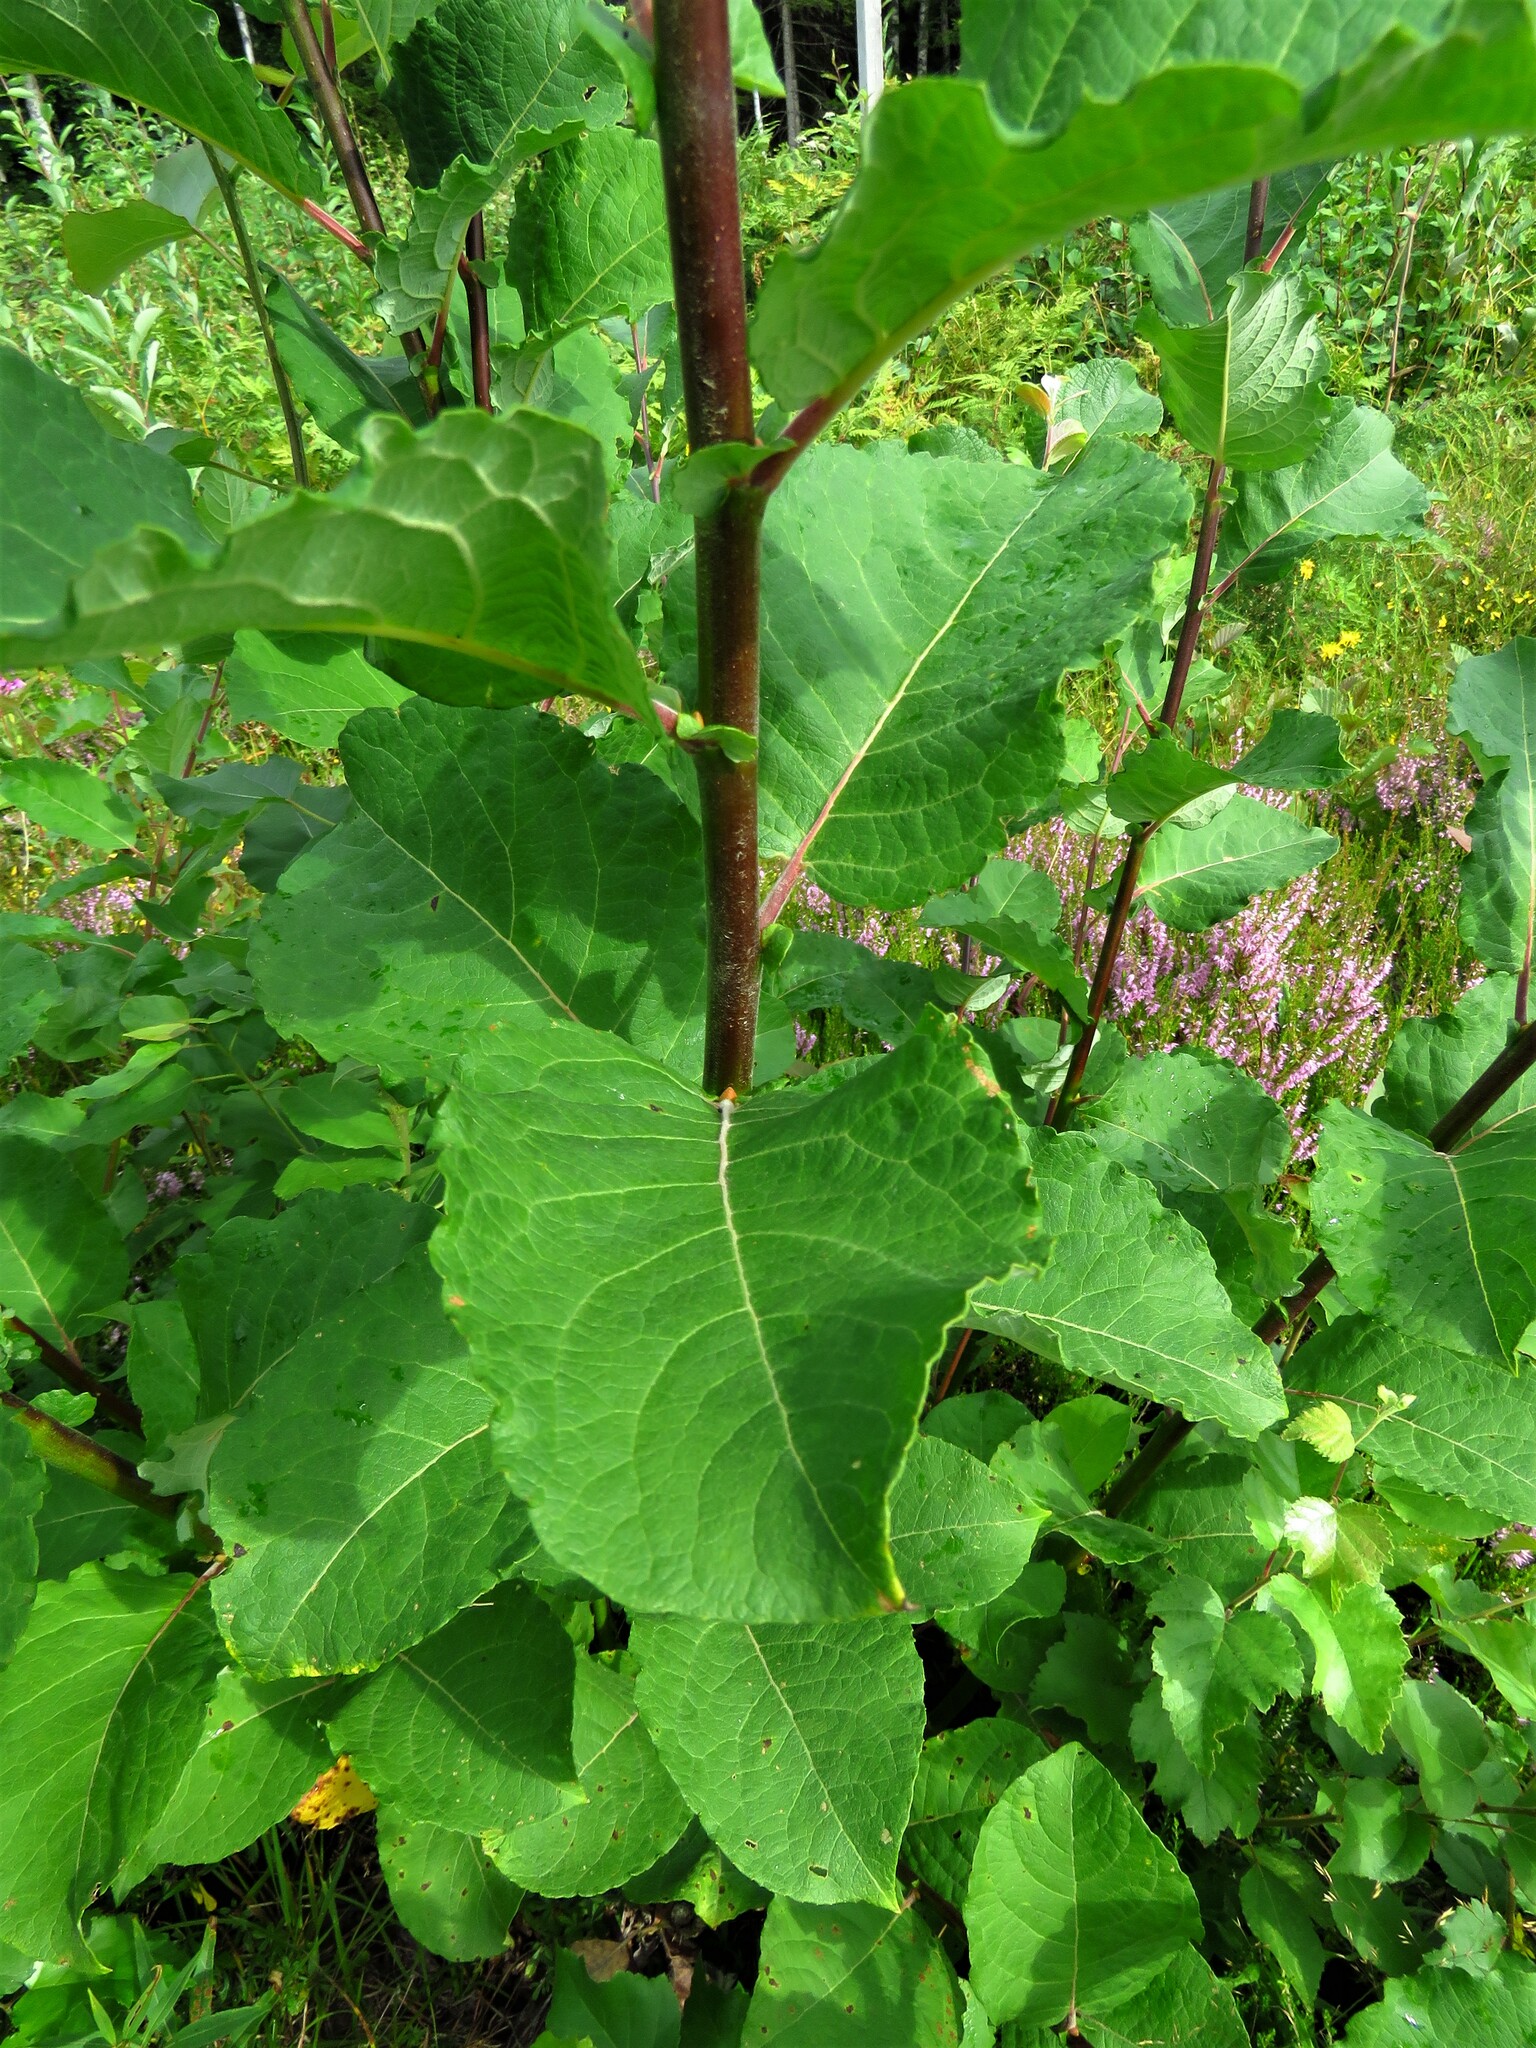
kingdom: Plantae
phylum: Tracheophyta
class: Magnoliopsida
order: Malpighiales
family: Salicaceae
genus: Salix
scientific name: Salix caprea
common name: Goat willow
